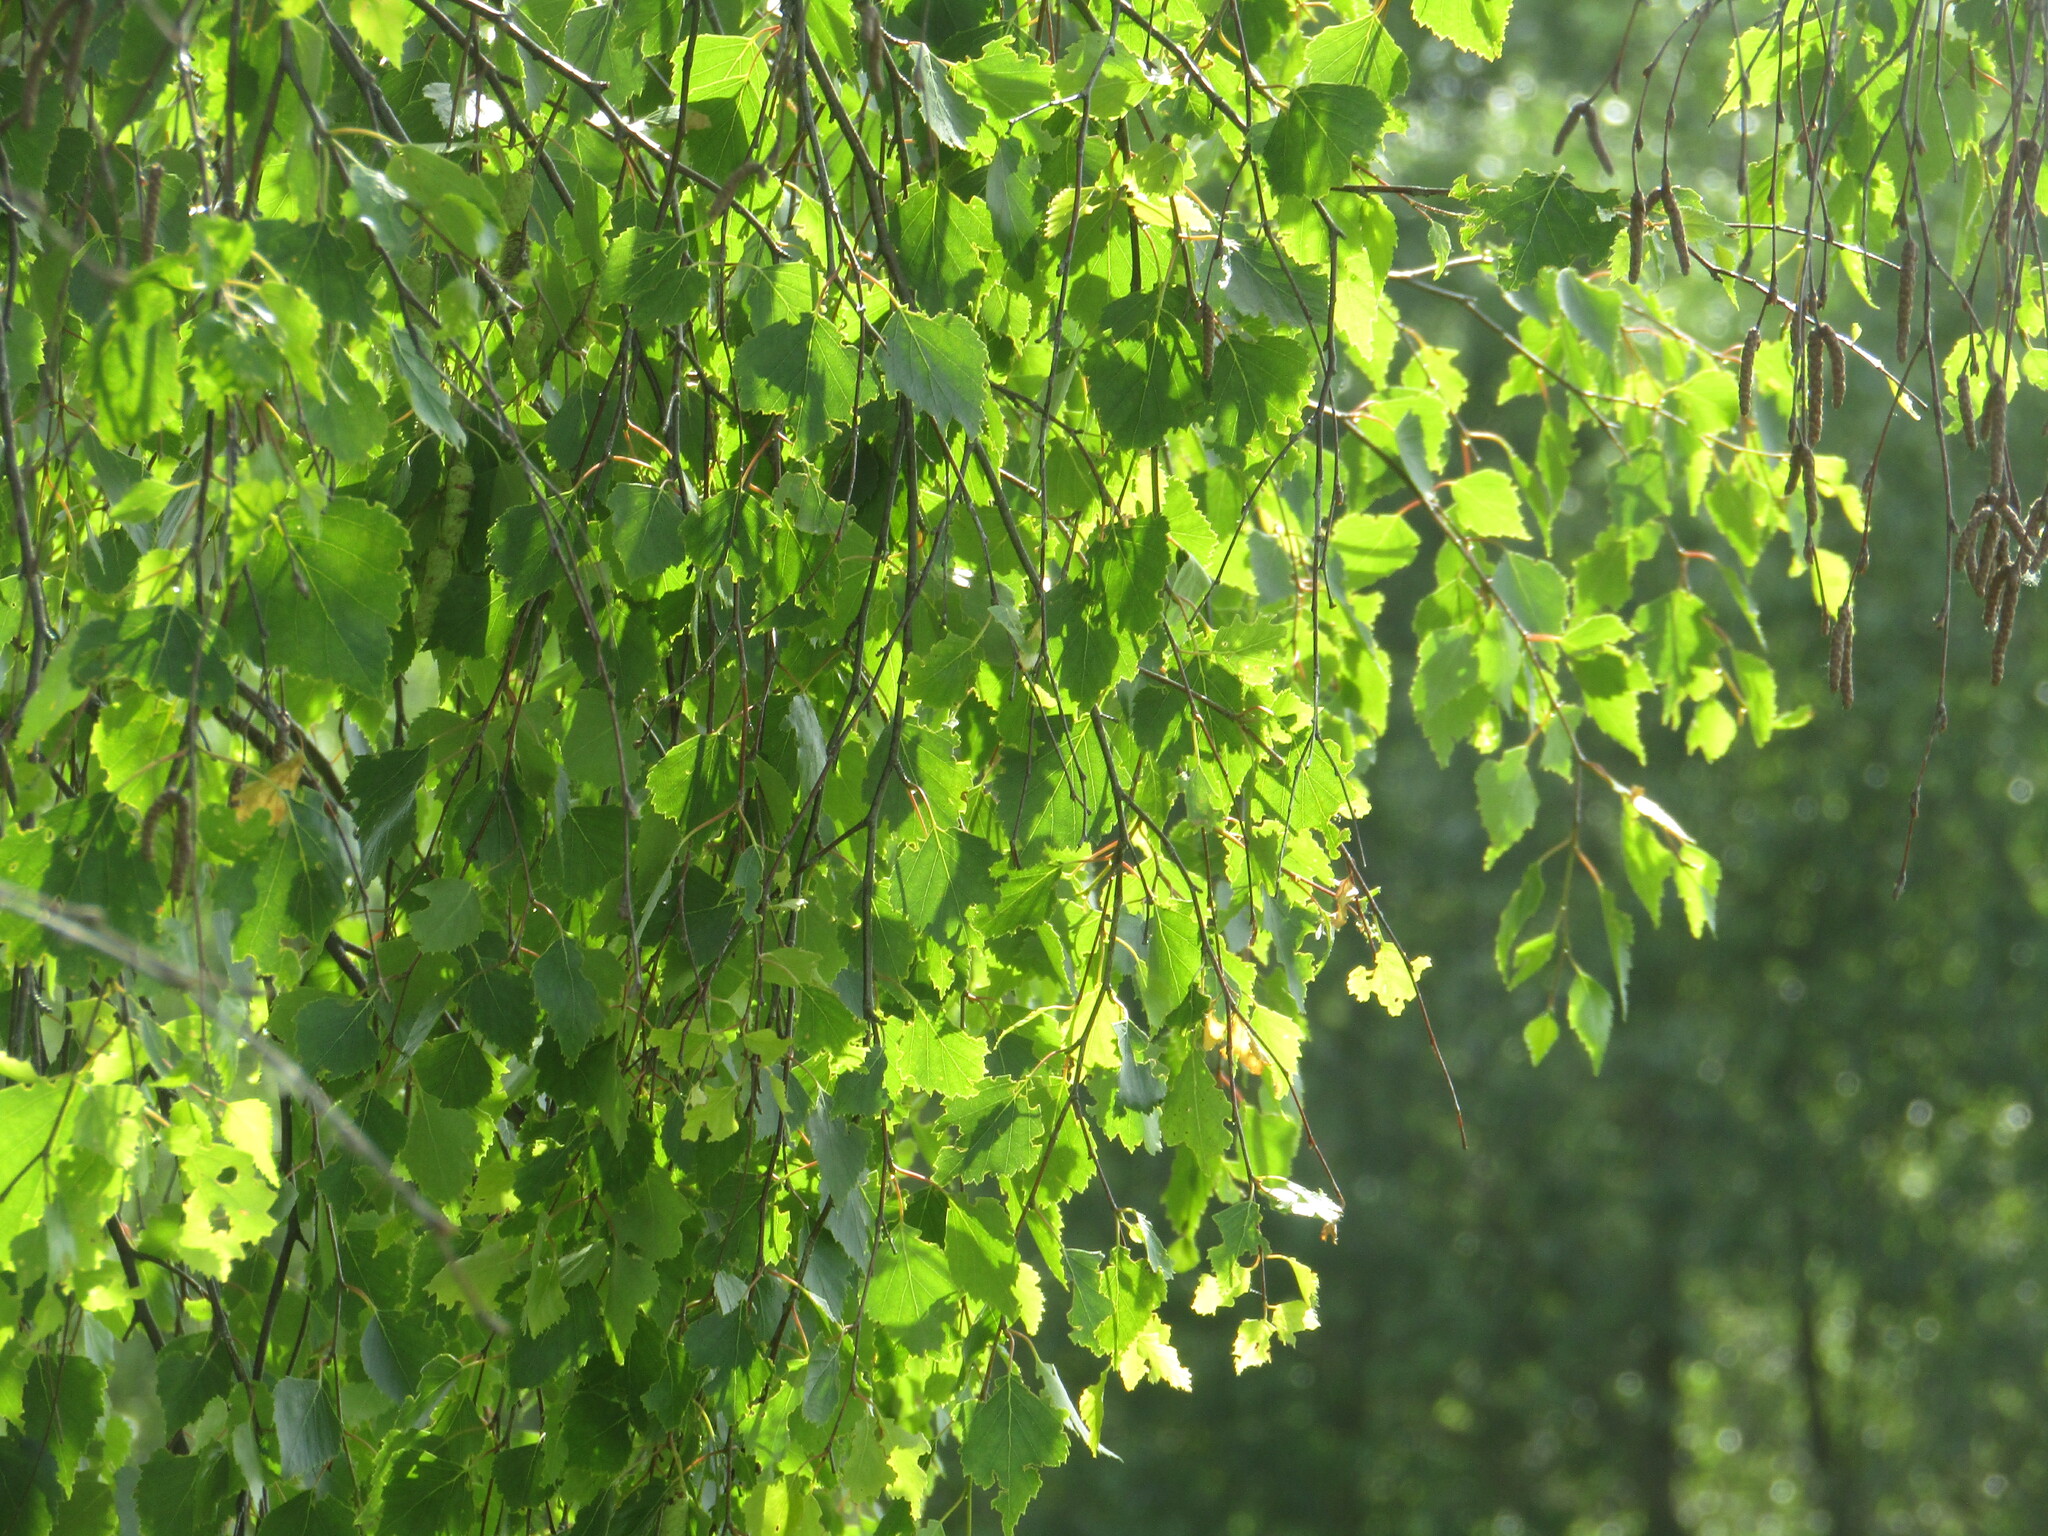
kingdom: Plantae
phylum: Tracheophyta
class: Magnoliopsida
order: Fagales
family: Betulaceae
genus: Betula
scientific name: Betula pendula
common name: Silver birch
